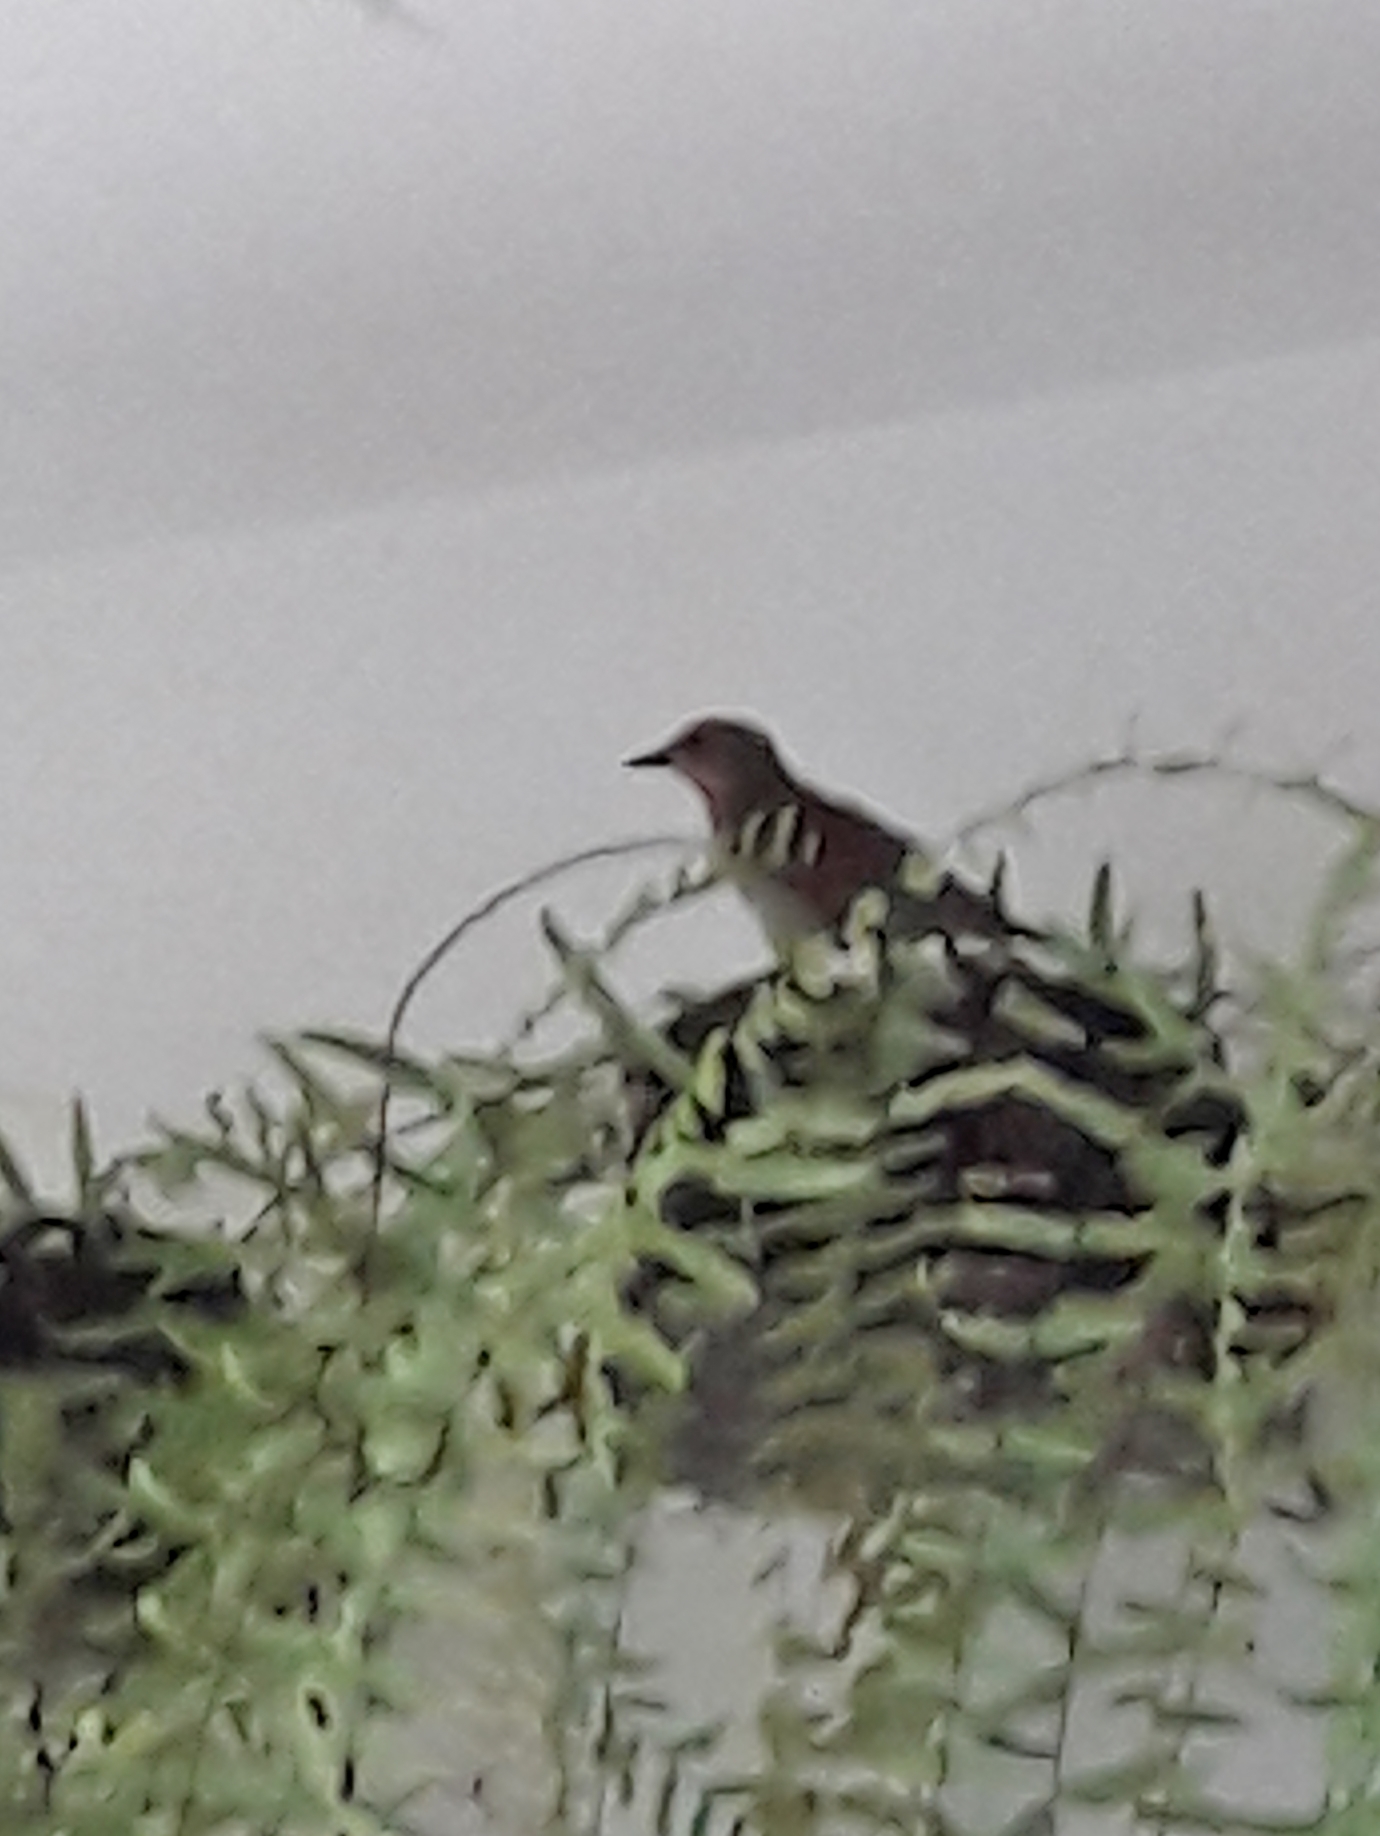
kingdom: Animalia
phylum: Chordata
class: Aves
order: Passeriformes
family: Turdidae
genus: Turdus
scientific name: Turdus leucomelas
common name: Pale-breasted thrush
